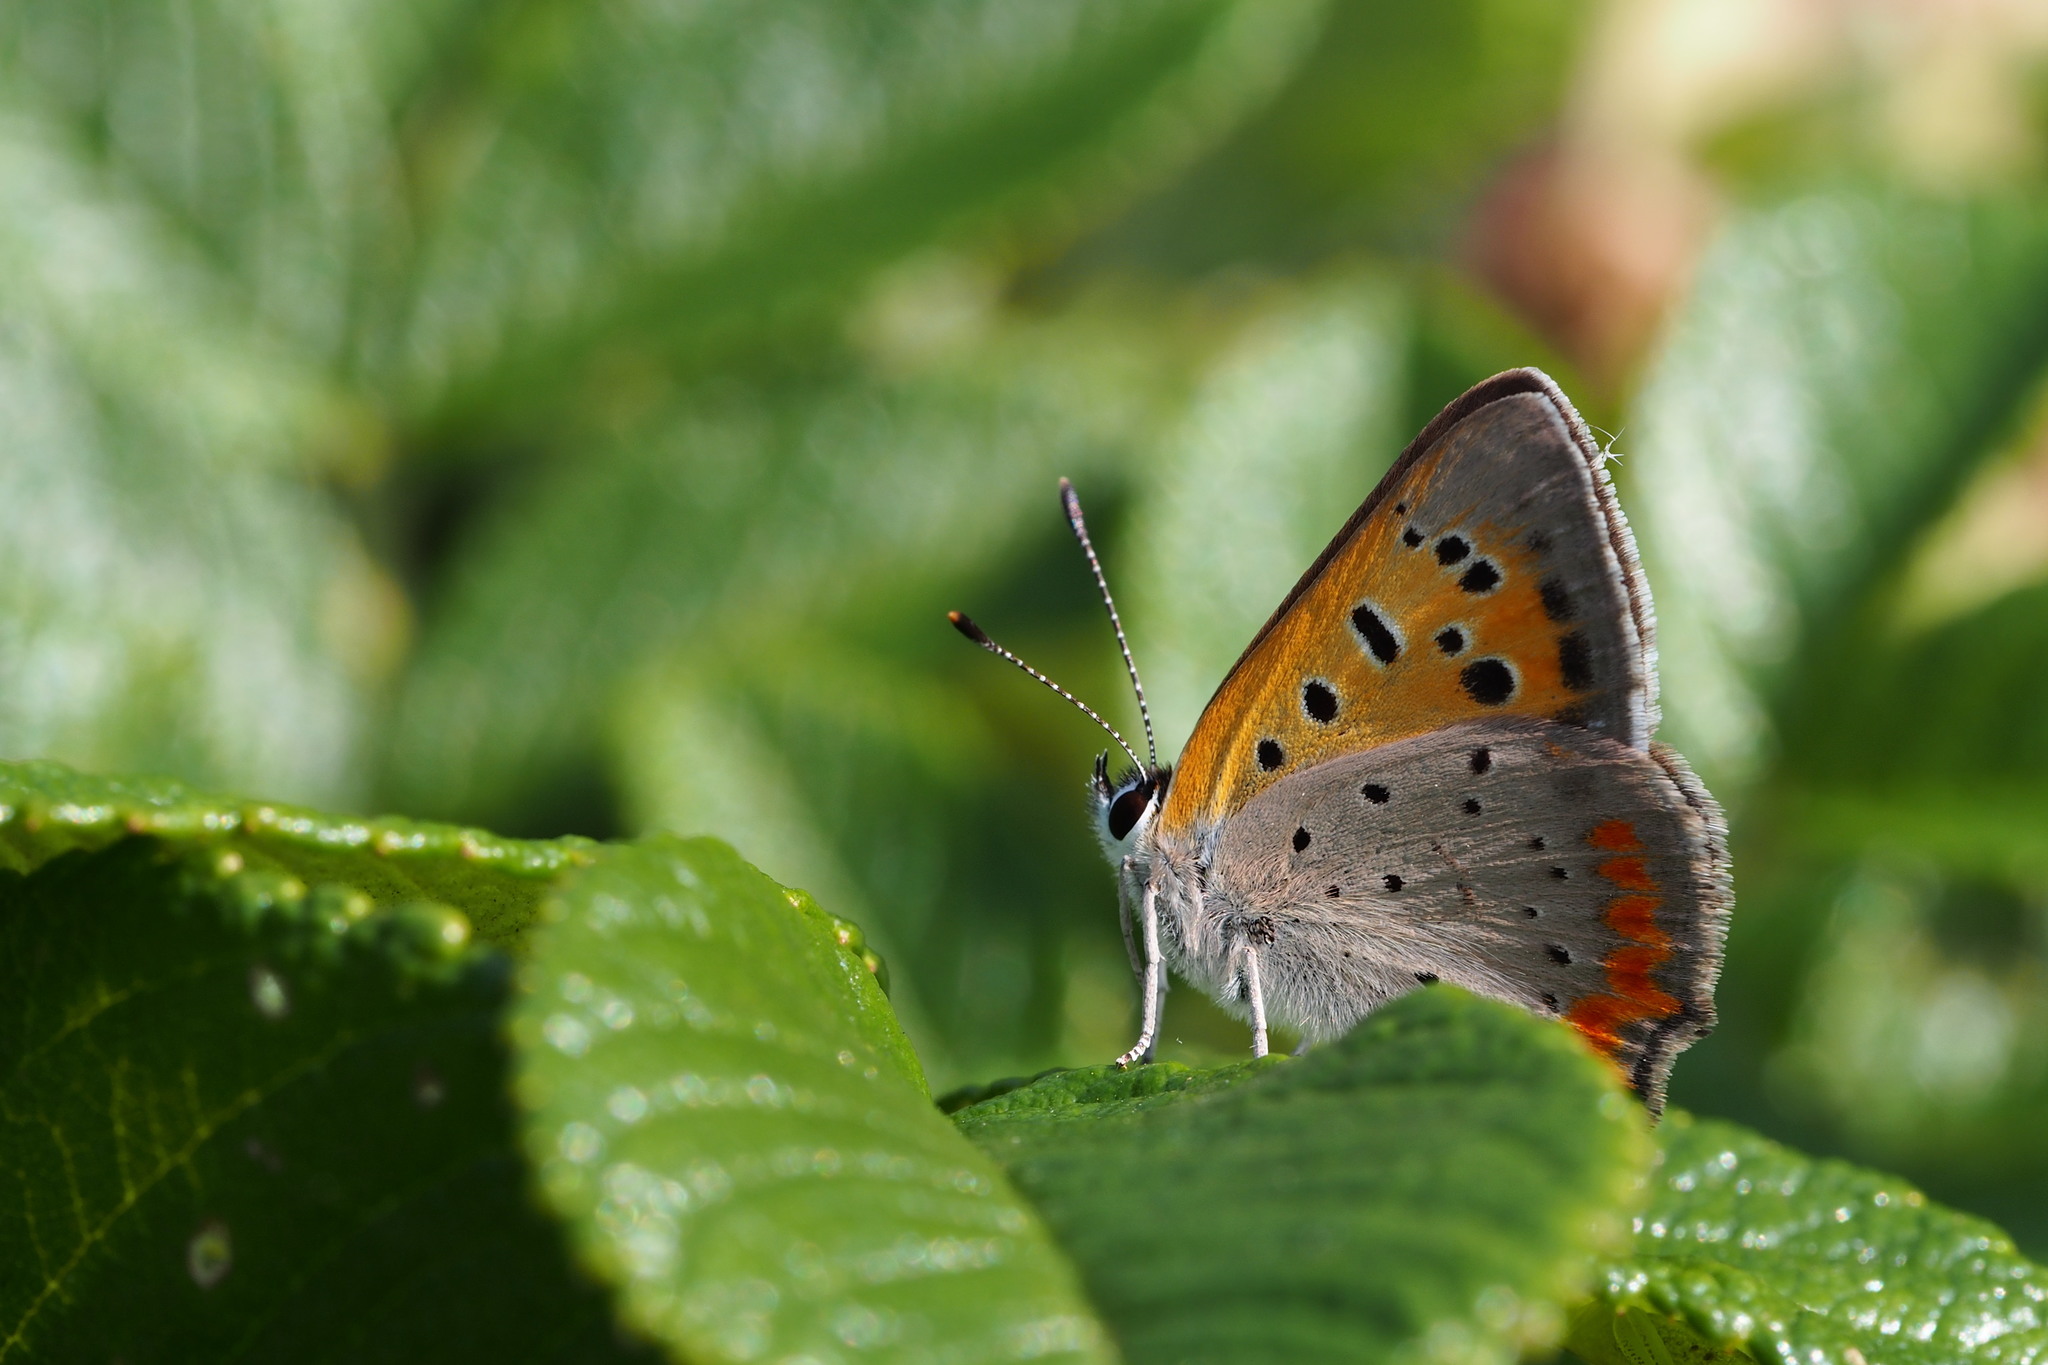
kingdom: Animalia
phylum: Arthropoda
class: Insecta
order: Lepidoptera
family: Lycaenidae
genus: Lycaena
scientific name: Lycaena phlaeas
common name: Small copper
